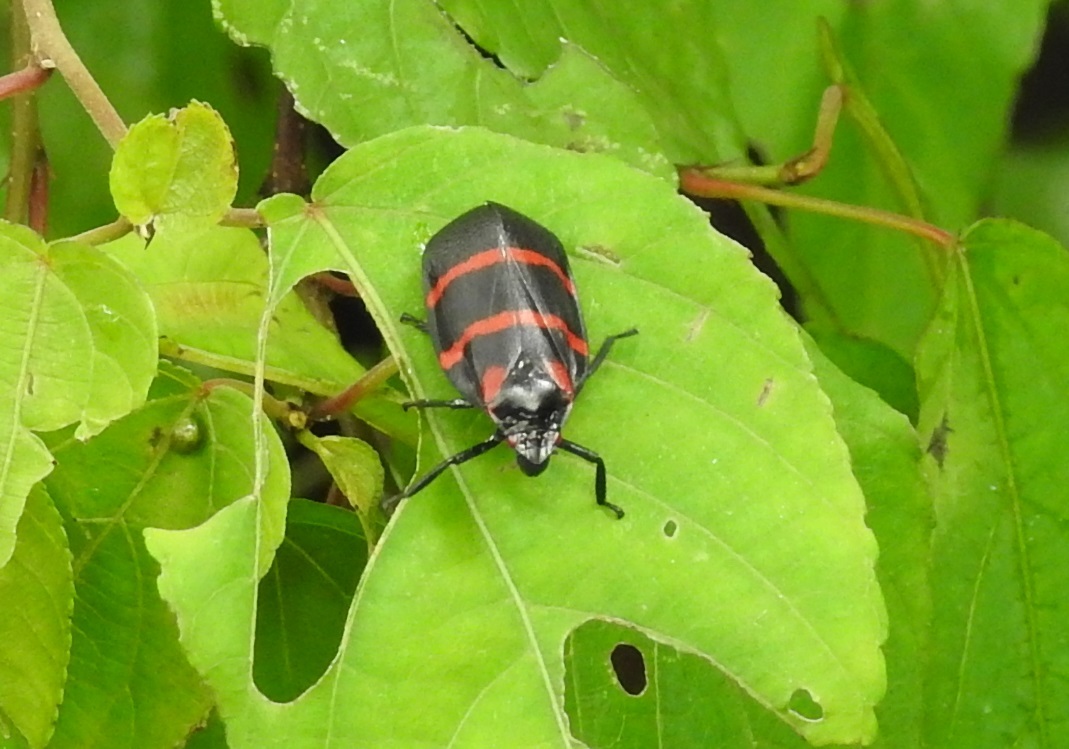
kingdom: Animalia
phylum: Arthropoda
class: Insecta
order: Hemiptera
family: Cercopidae
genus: Huaina
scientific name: Huaina inca
